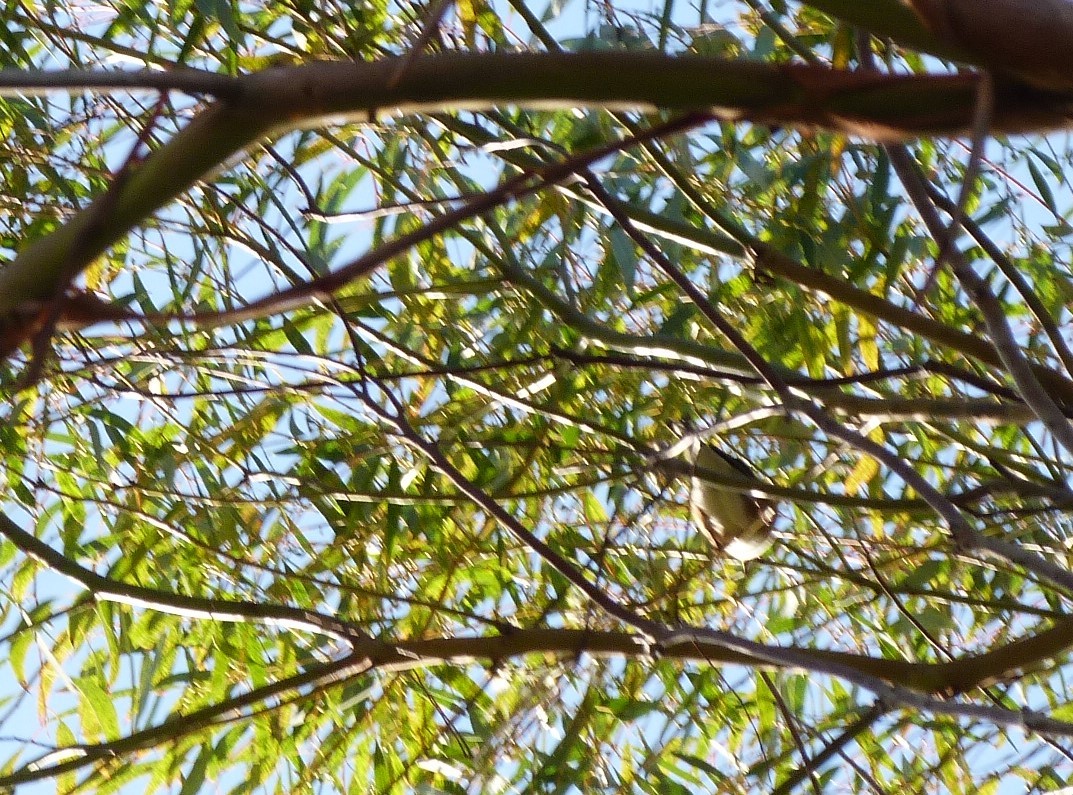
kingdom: Animalia
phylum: Chordata
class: Aves
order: Passeriformes
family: Zosteropidae
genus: Zosterops
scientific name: Zosterops lateralis
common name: Silvereye
